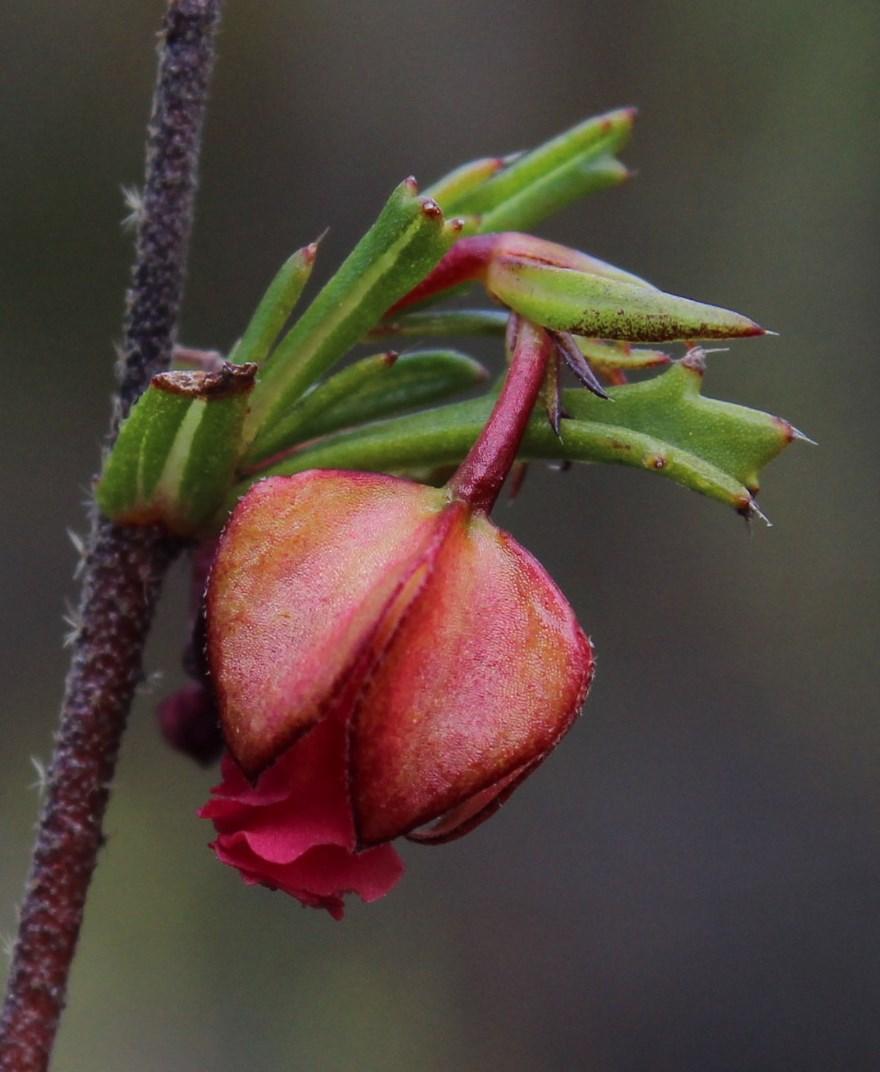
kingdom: Plantae
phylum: Tracheophyta
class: Magnoliopsida
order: Malvales
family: Malvaceae
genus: Hermannia
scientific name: Hermannia angularis
